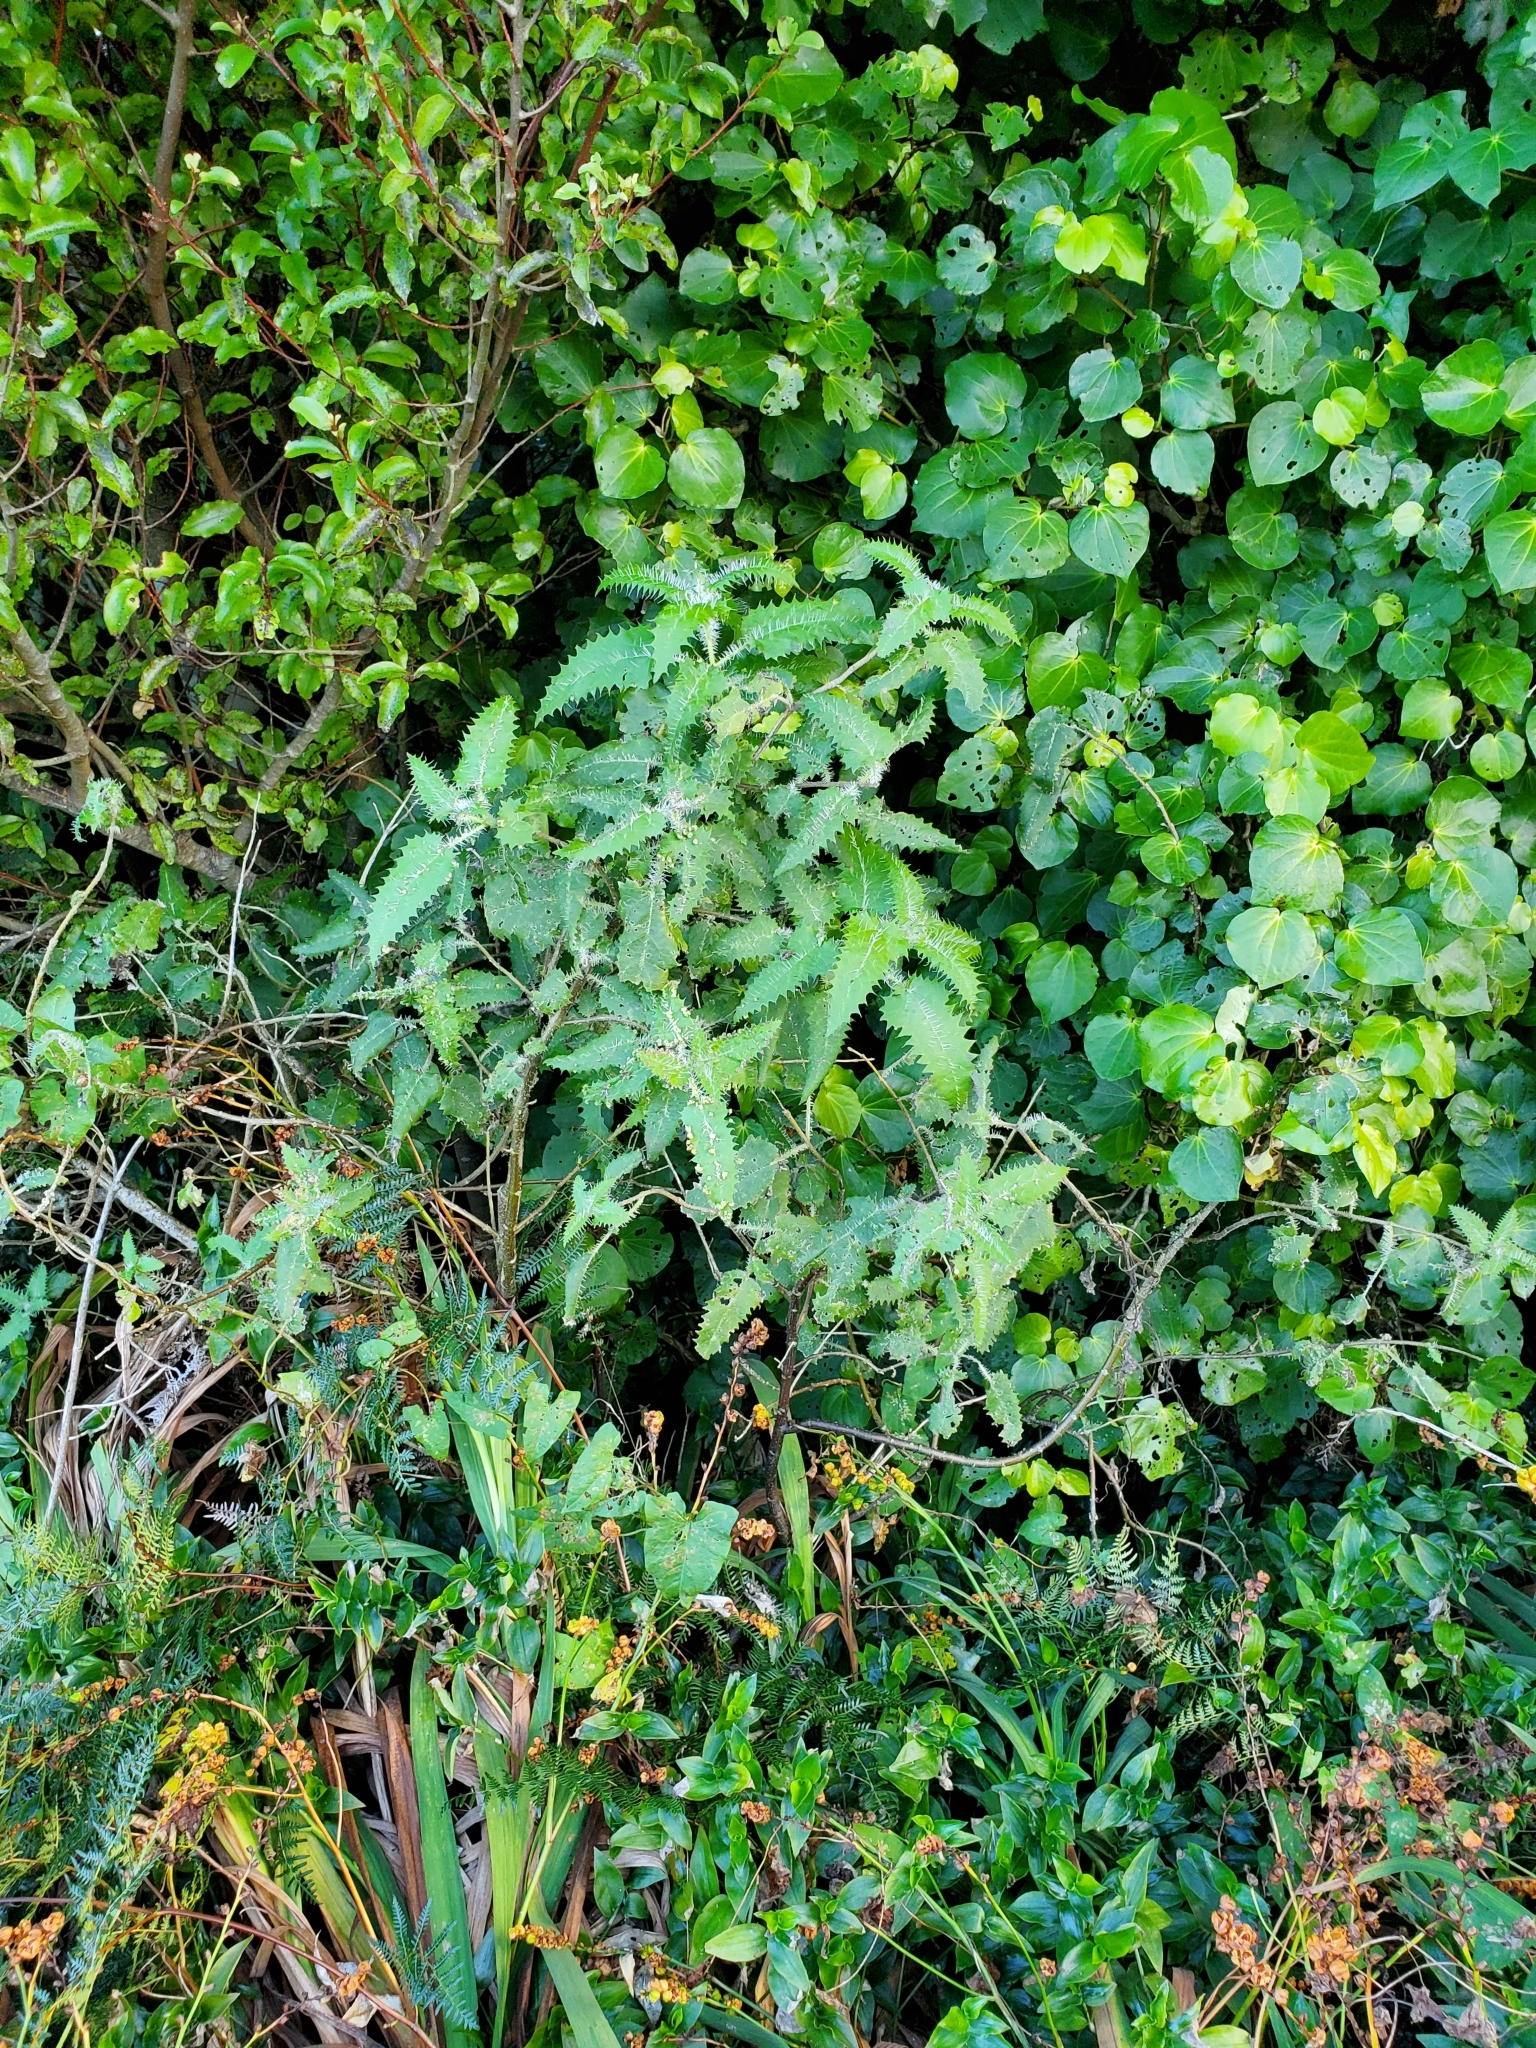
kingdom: Plantae
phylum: Tracheophyta
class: Magnoliopsida
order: Rosales
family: Urticaceae
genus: Urtica
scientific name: Urtica ferox
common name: Tree nettle
